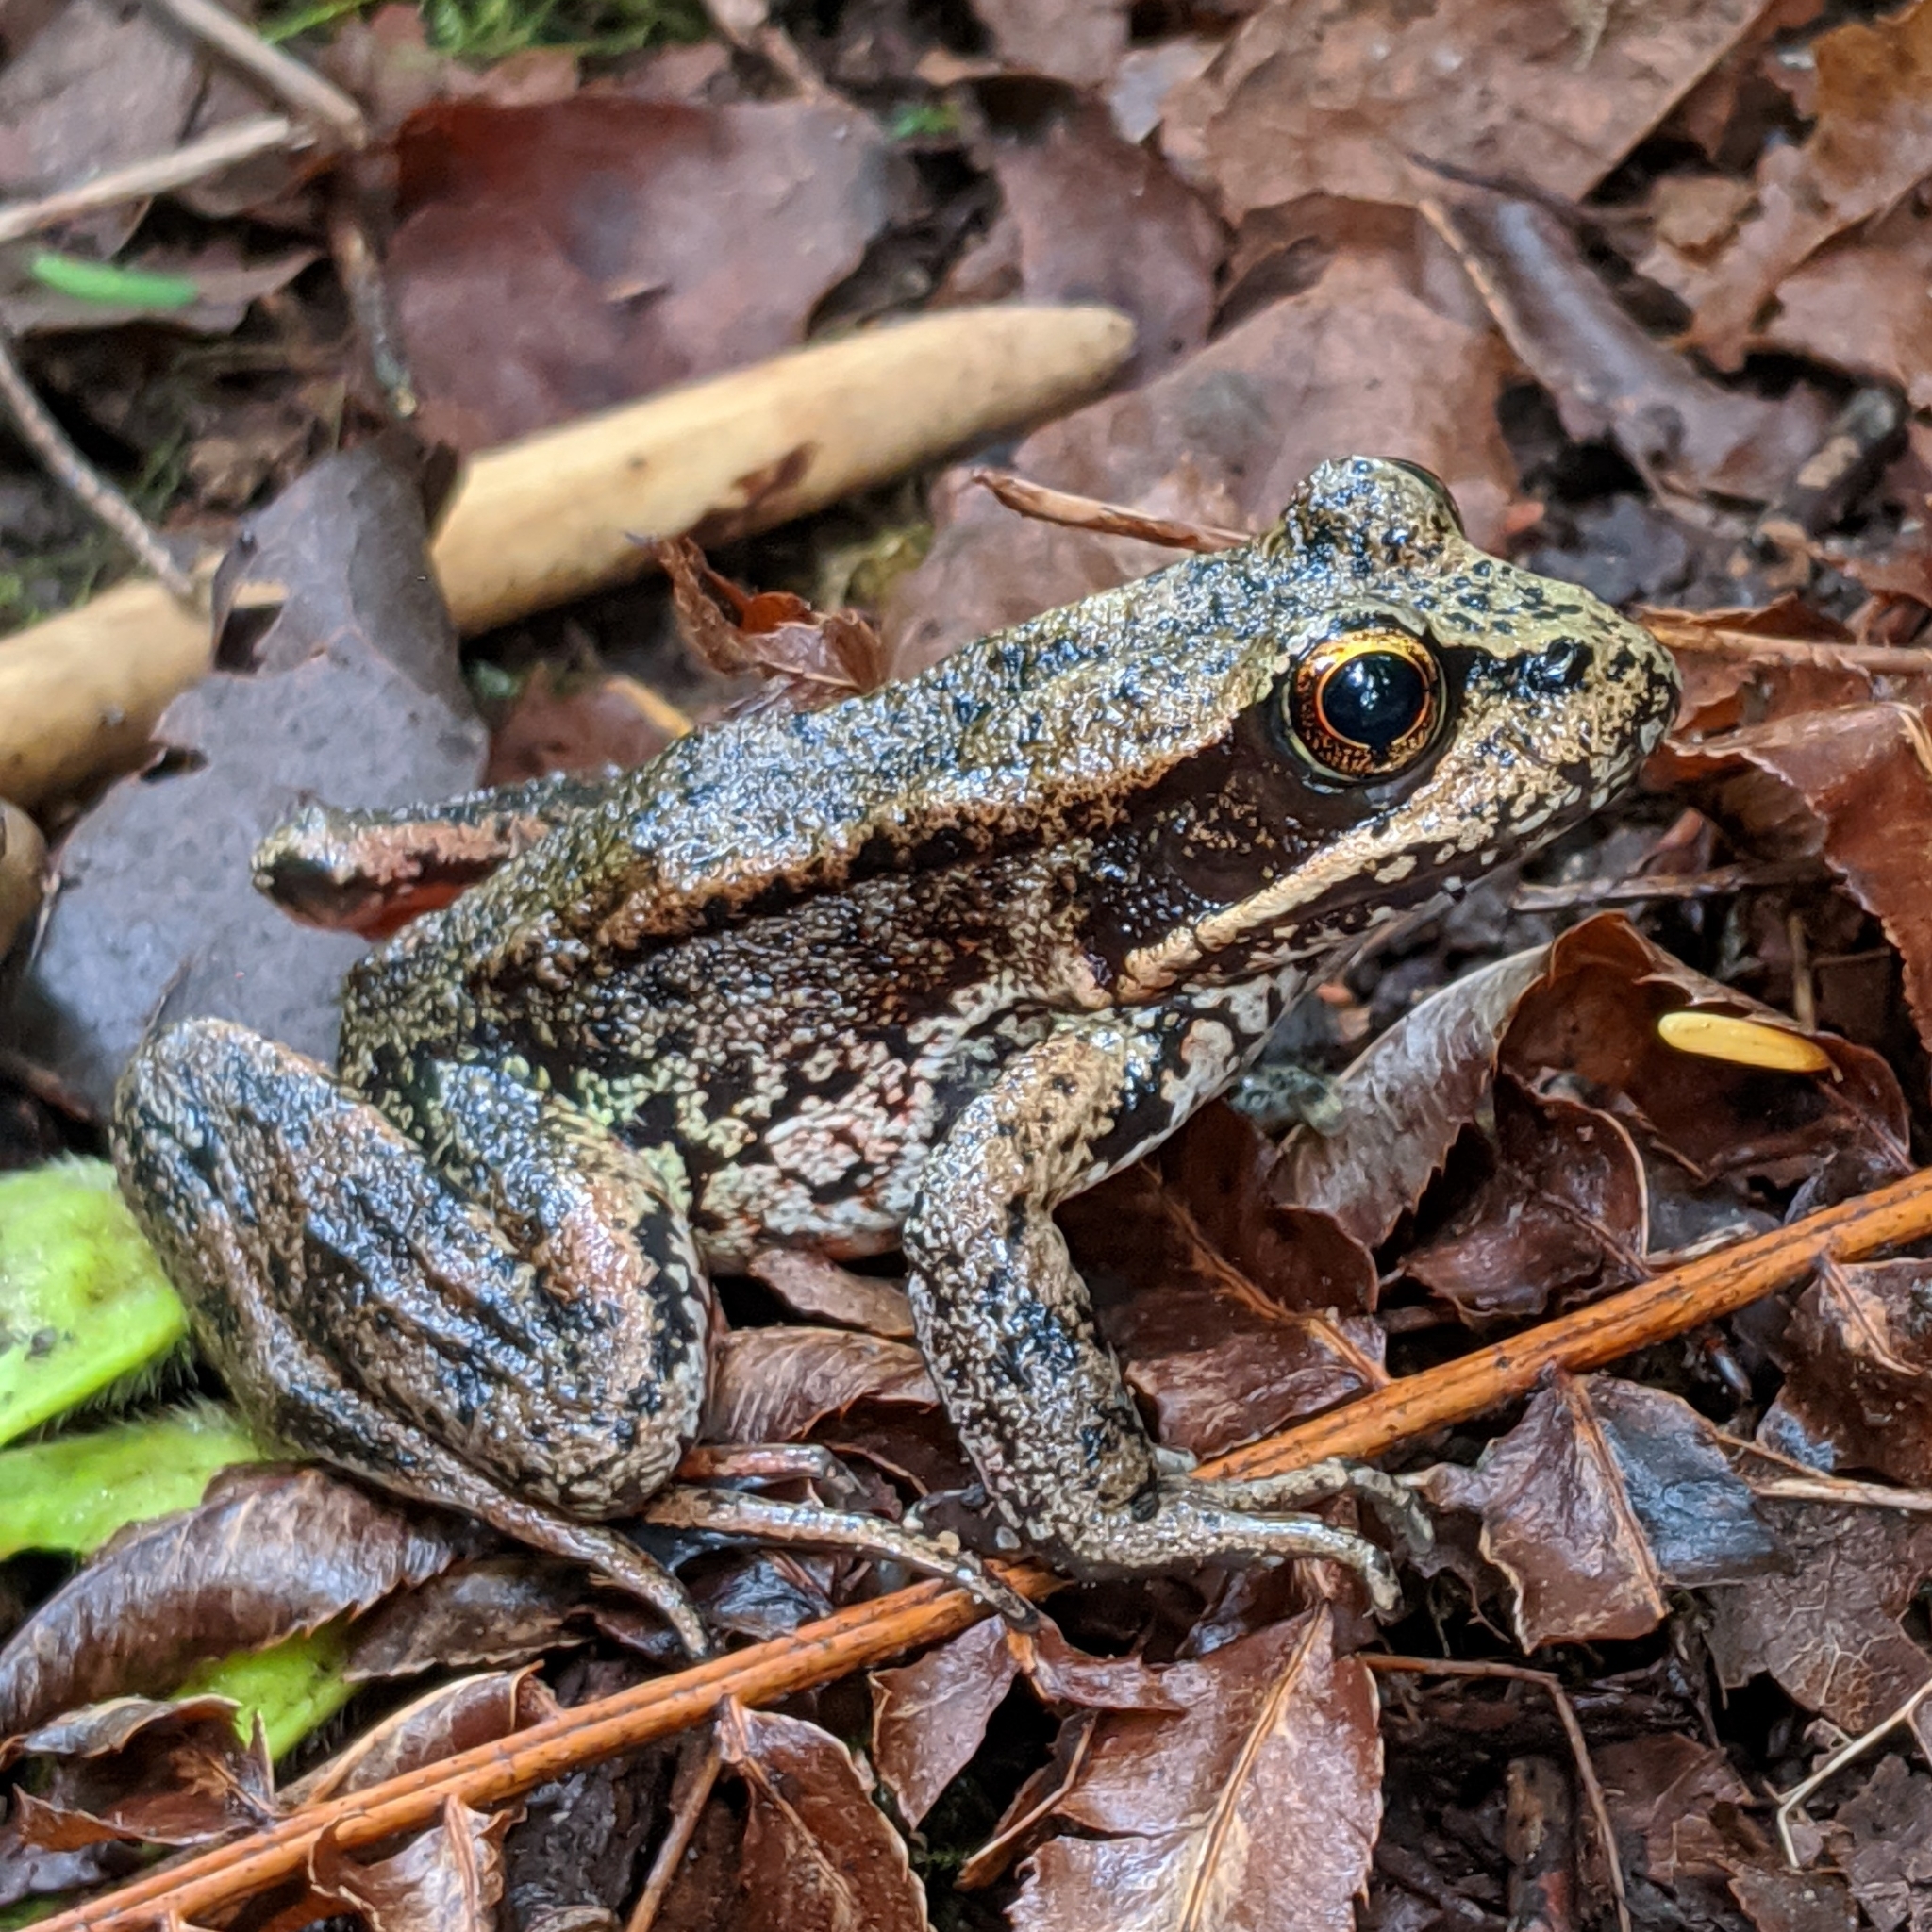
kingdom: Animalia
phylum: Chordata
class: Amphibia
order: Anura
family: Ranidae
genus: Rana
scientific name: Rana aurora
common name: Red-legged frog
